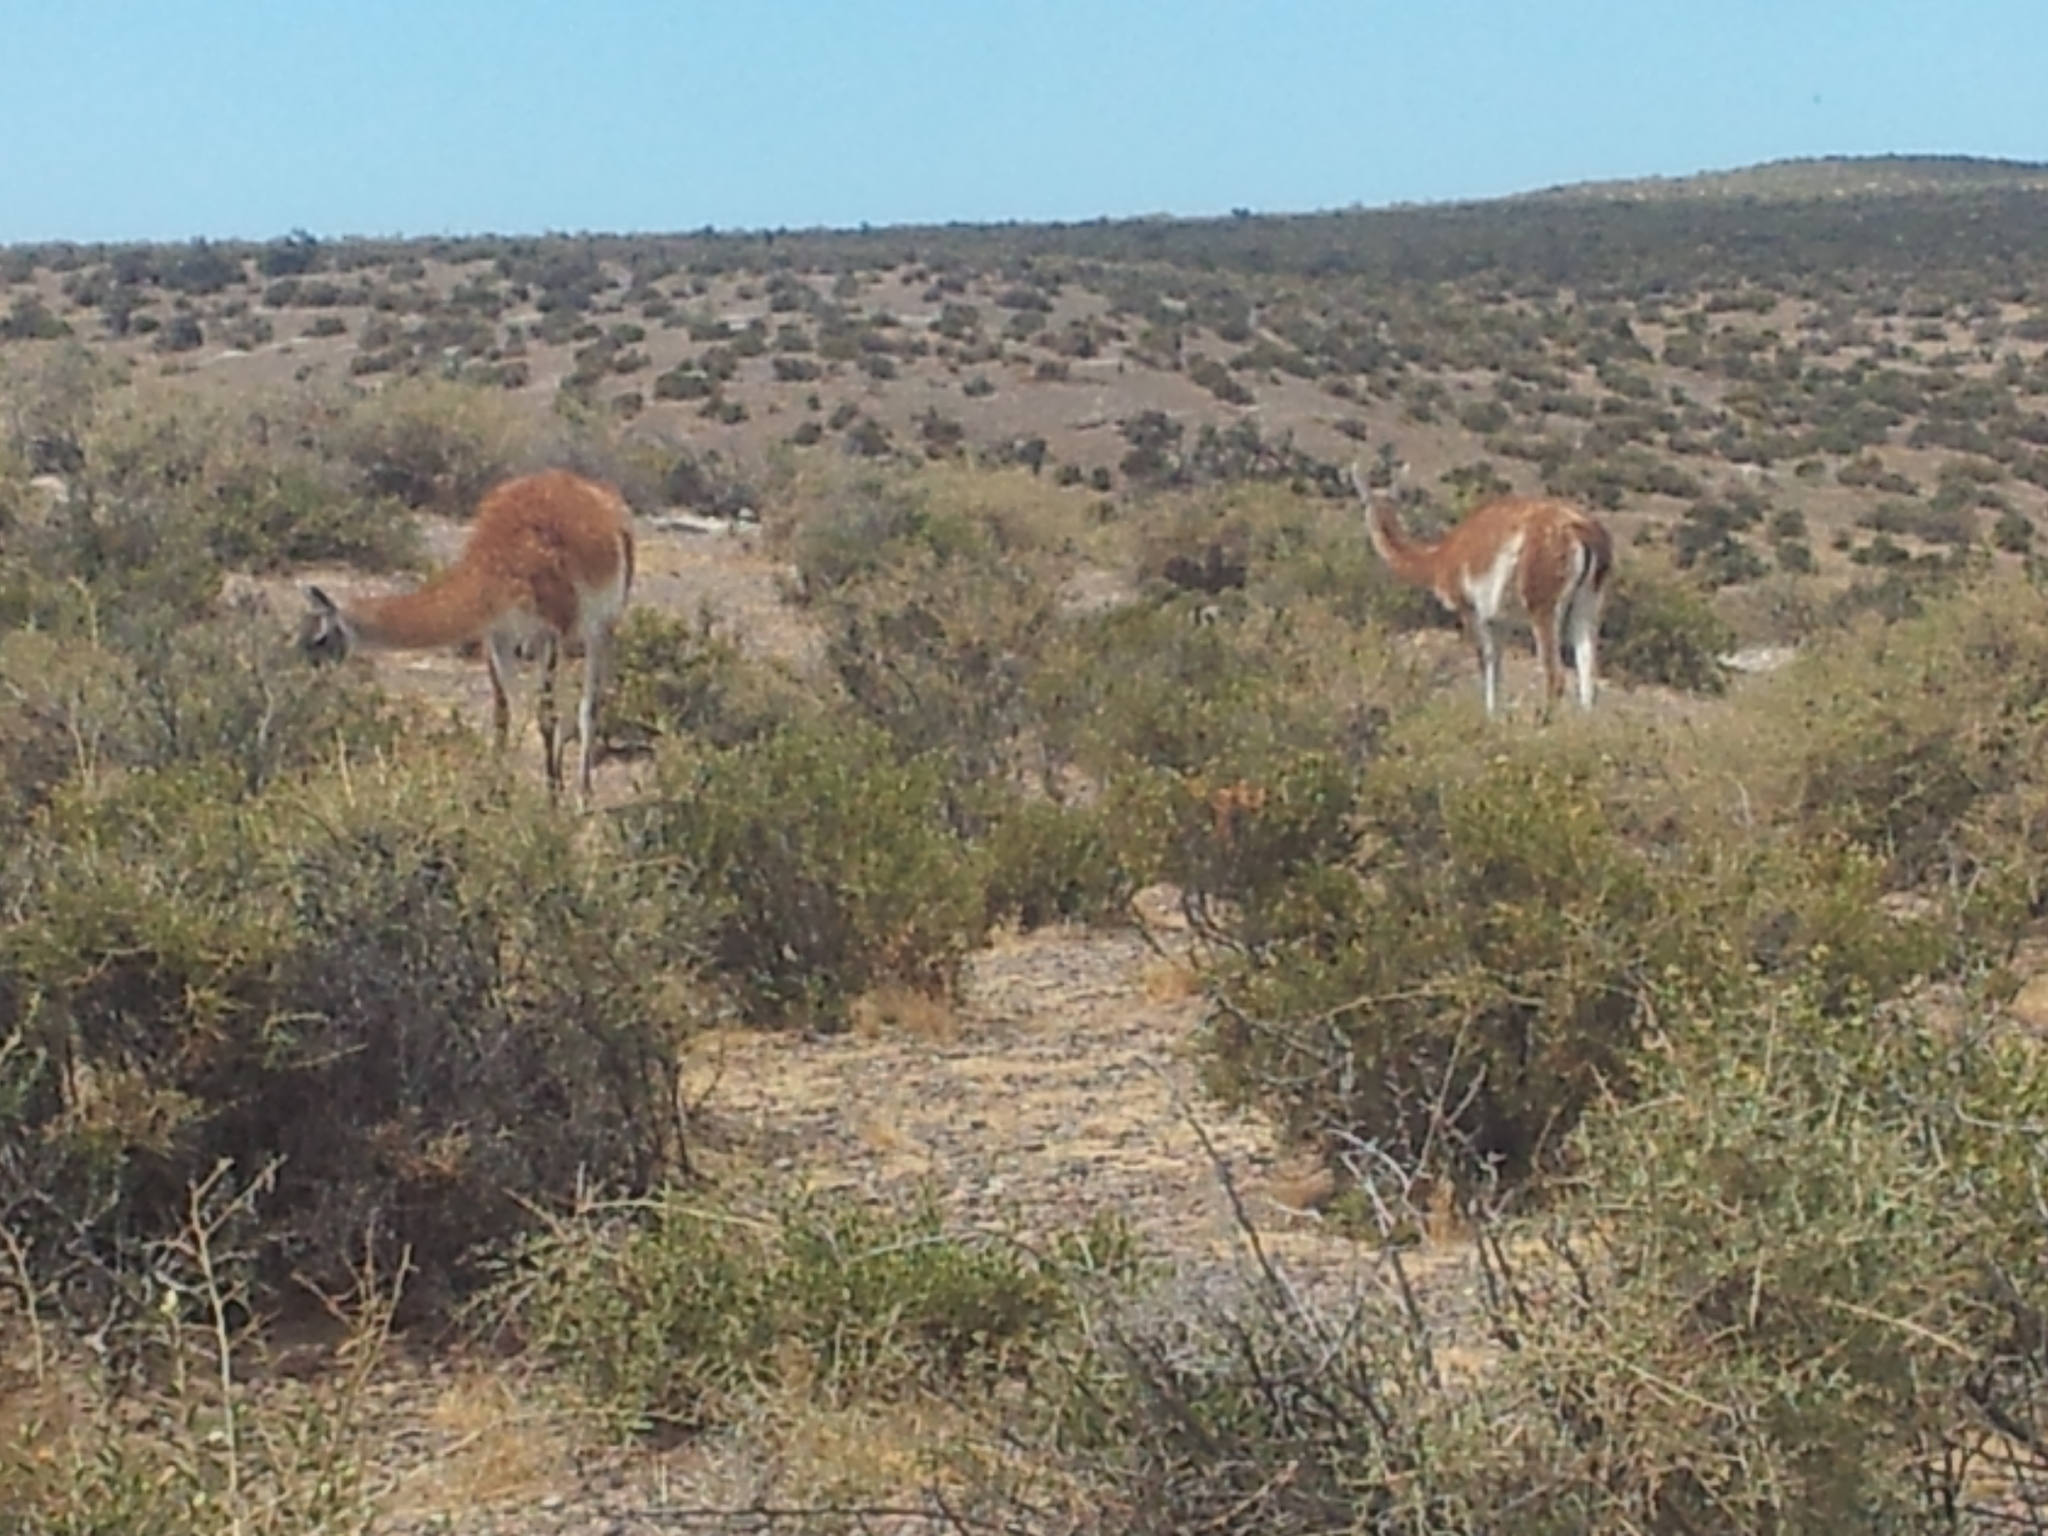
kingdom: Animalia
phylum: Chordata
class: Mammalia
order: Artiodactyla
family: Camelidae
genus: Lama
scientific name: Lama glama
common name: Llama
